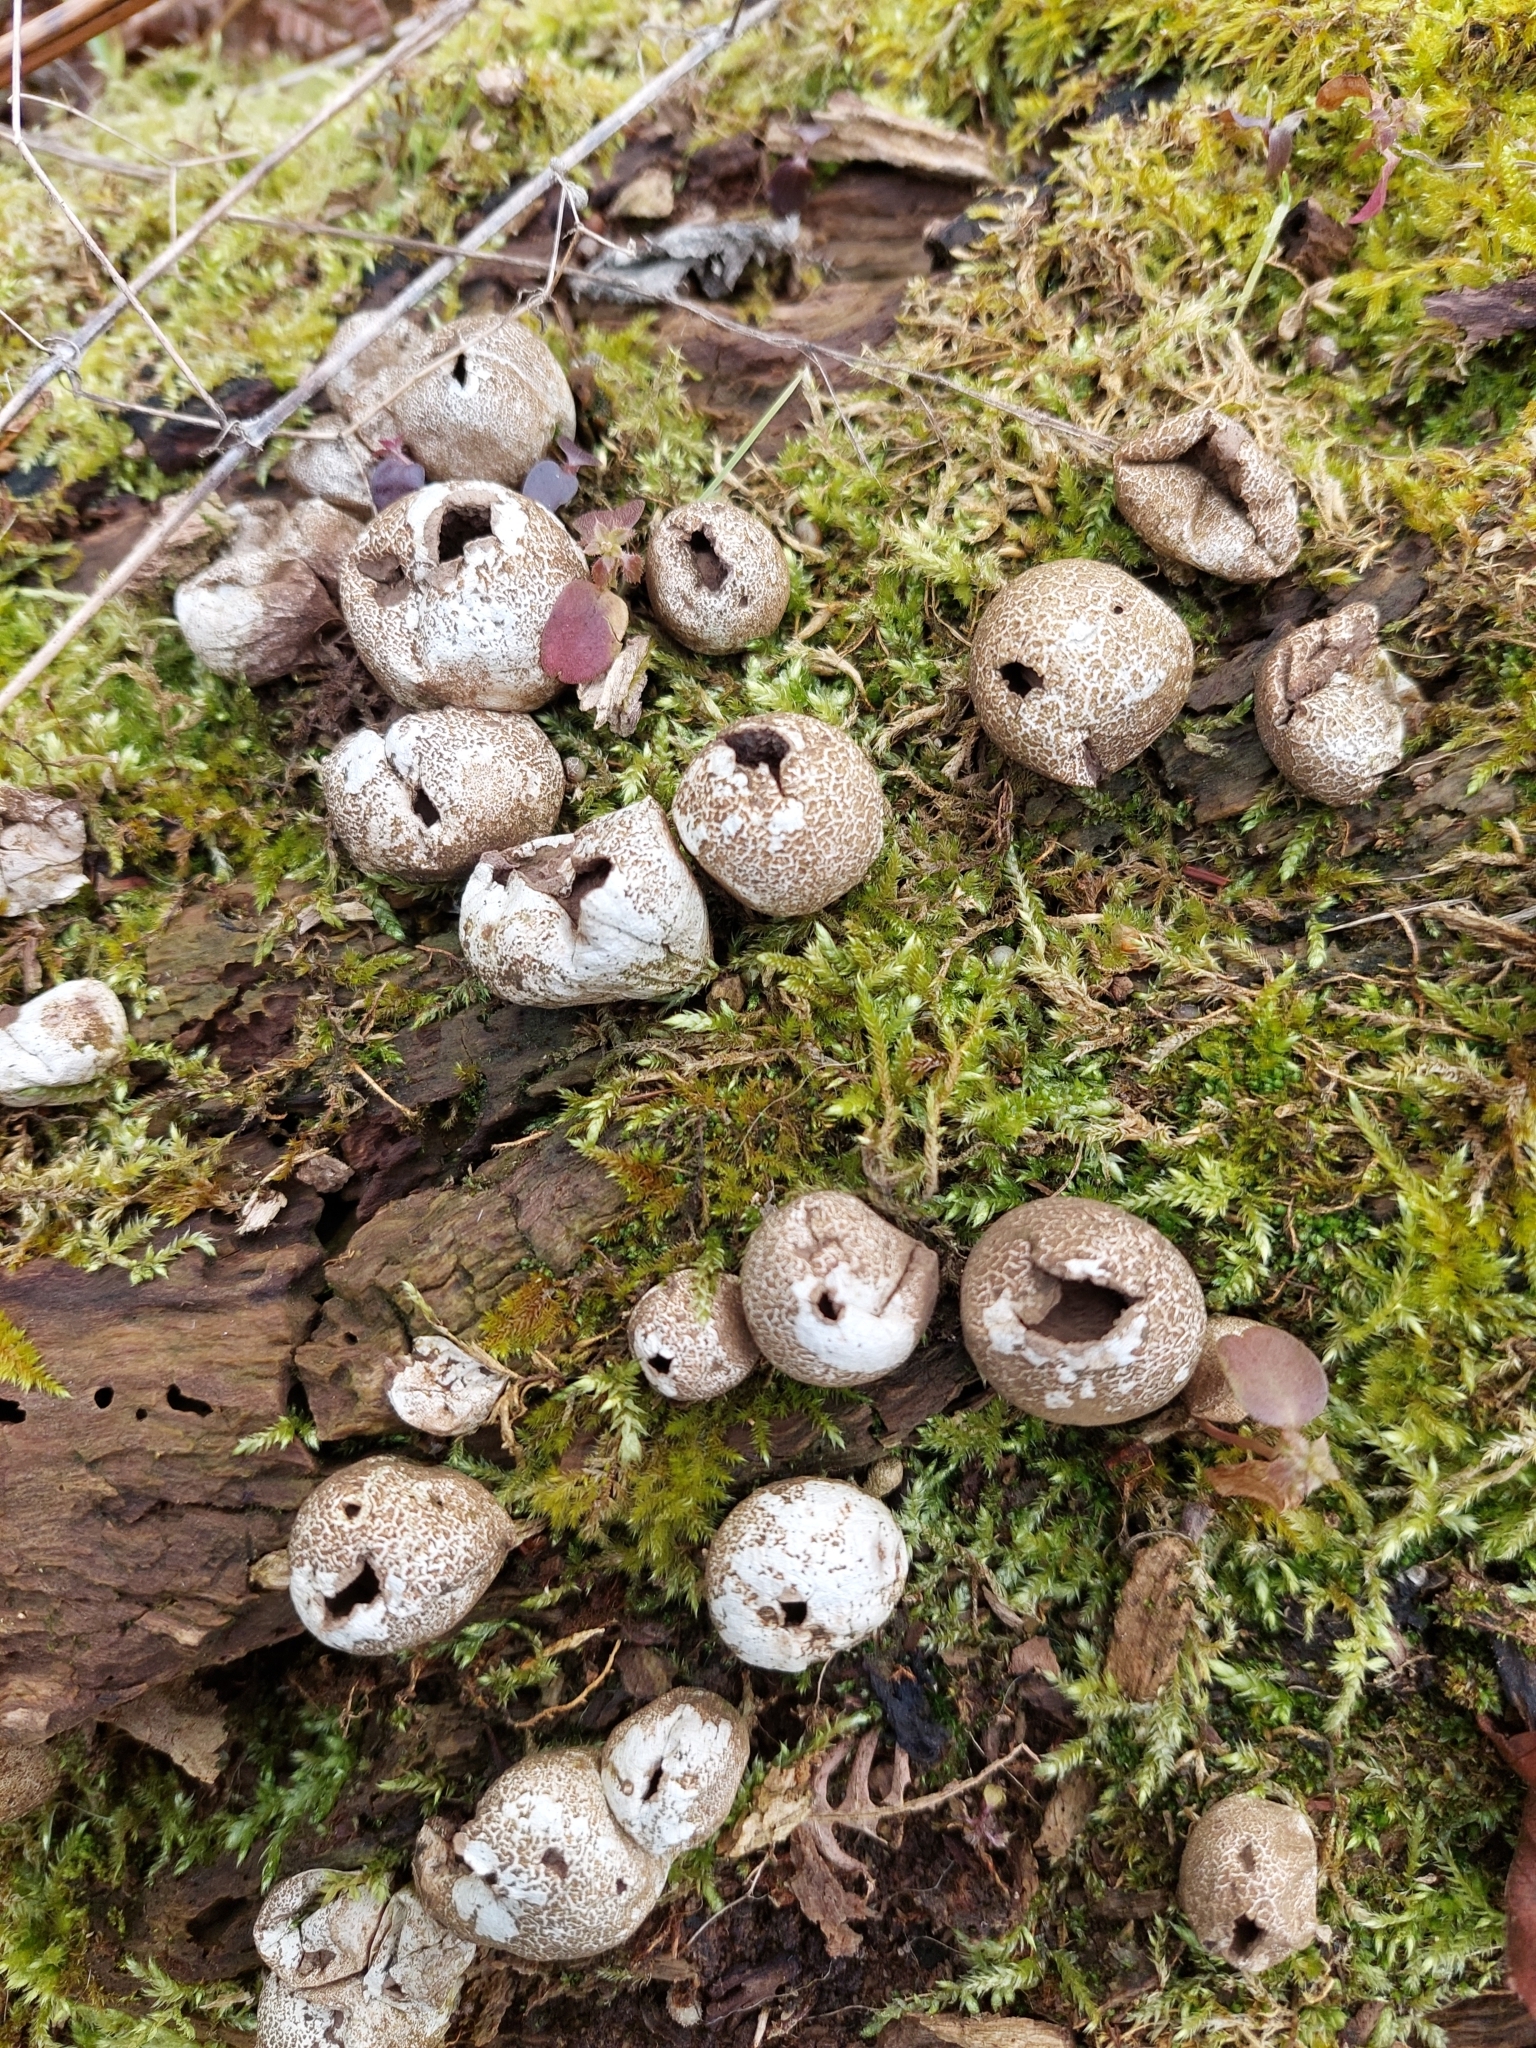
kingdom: Fungi
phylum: Basidiomycota
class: Agaricomycetes
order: Agaricales
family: Lycoperdaceae
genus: Apioperdon
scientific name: Apioperdon pyriforme
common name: Pear-shaped puffball
